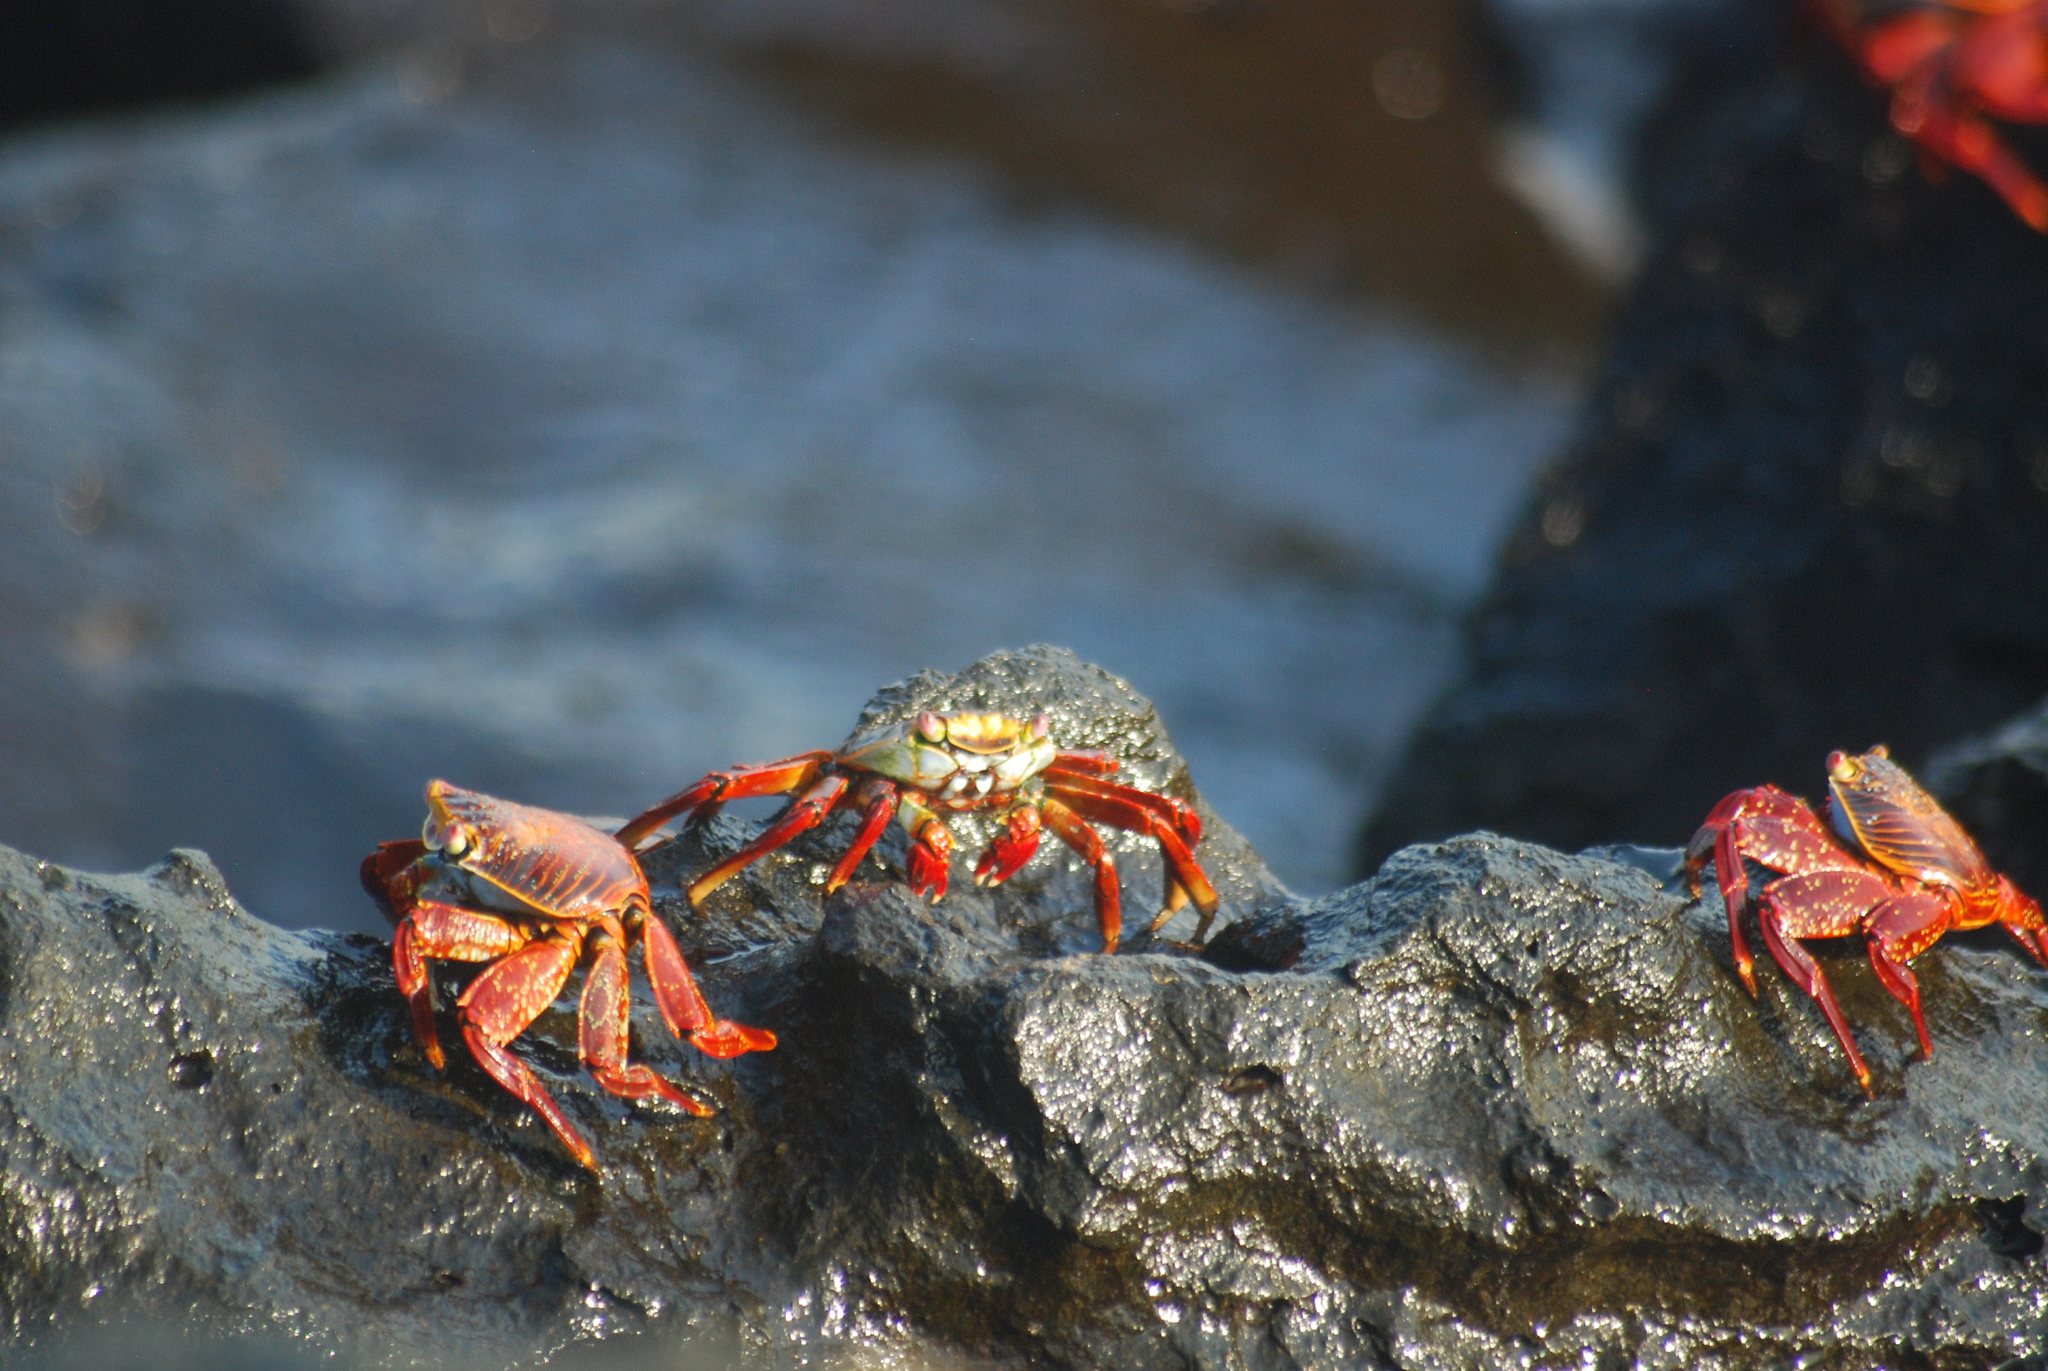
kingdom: Animalia
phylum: Arthropoda
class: Malacostraca
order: Decapoda
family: Grapsidae
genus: Grapsus
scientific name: Grapsus grapsus
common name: Sally lightfoot
